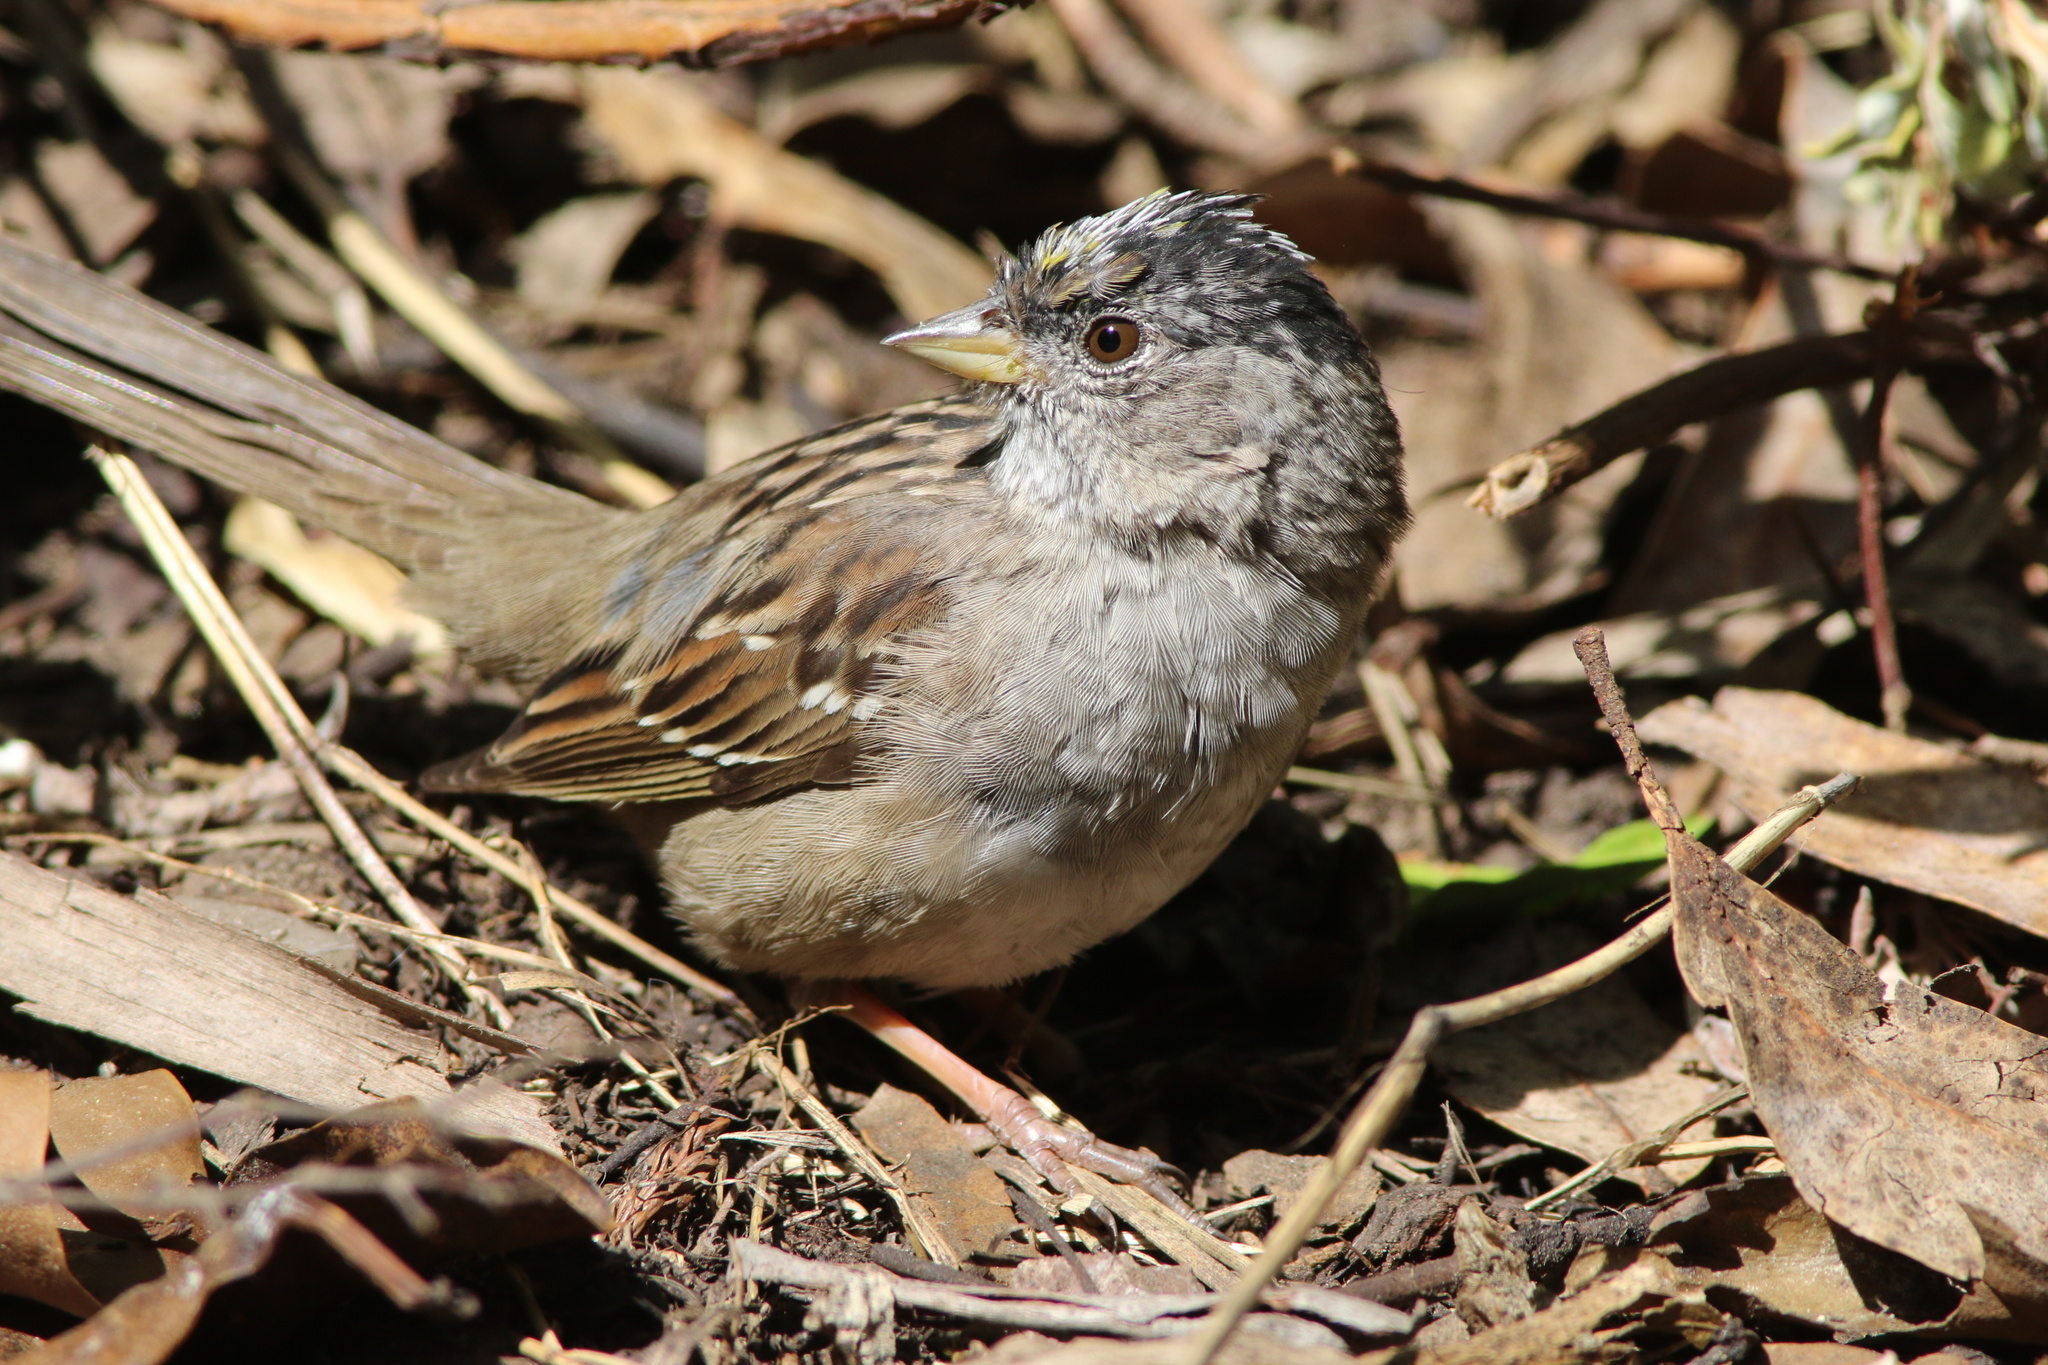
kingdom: Animalia
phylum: Chordata
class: Aves
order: Passeriformes
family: Passerellidae
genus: Zonotrichia
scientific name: Zonotrichia atricapilla
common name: Golden-crowned sparrow
